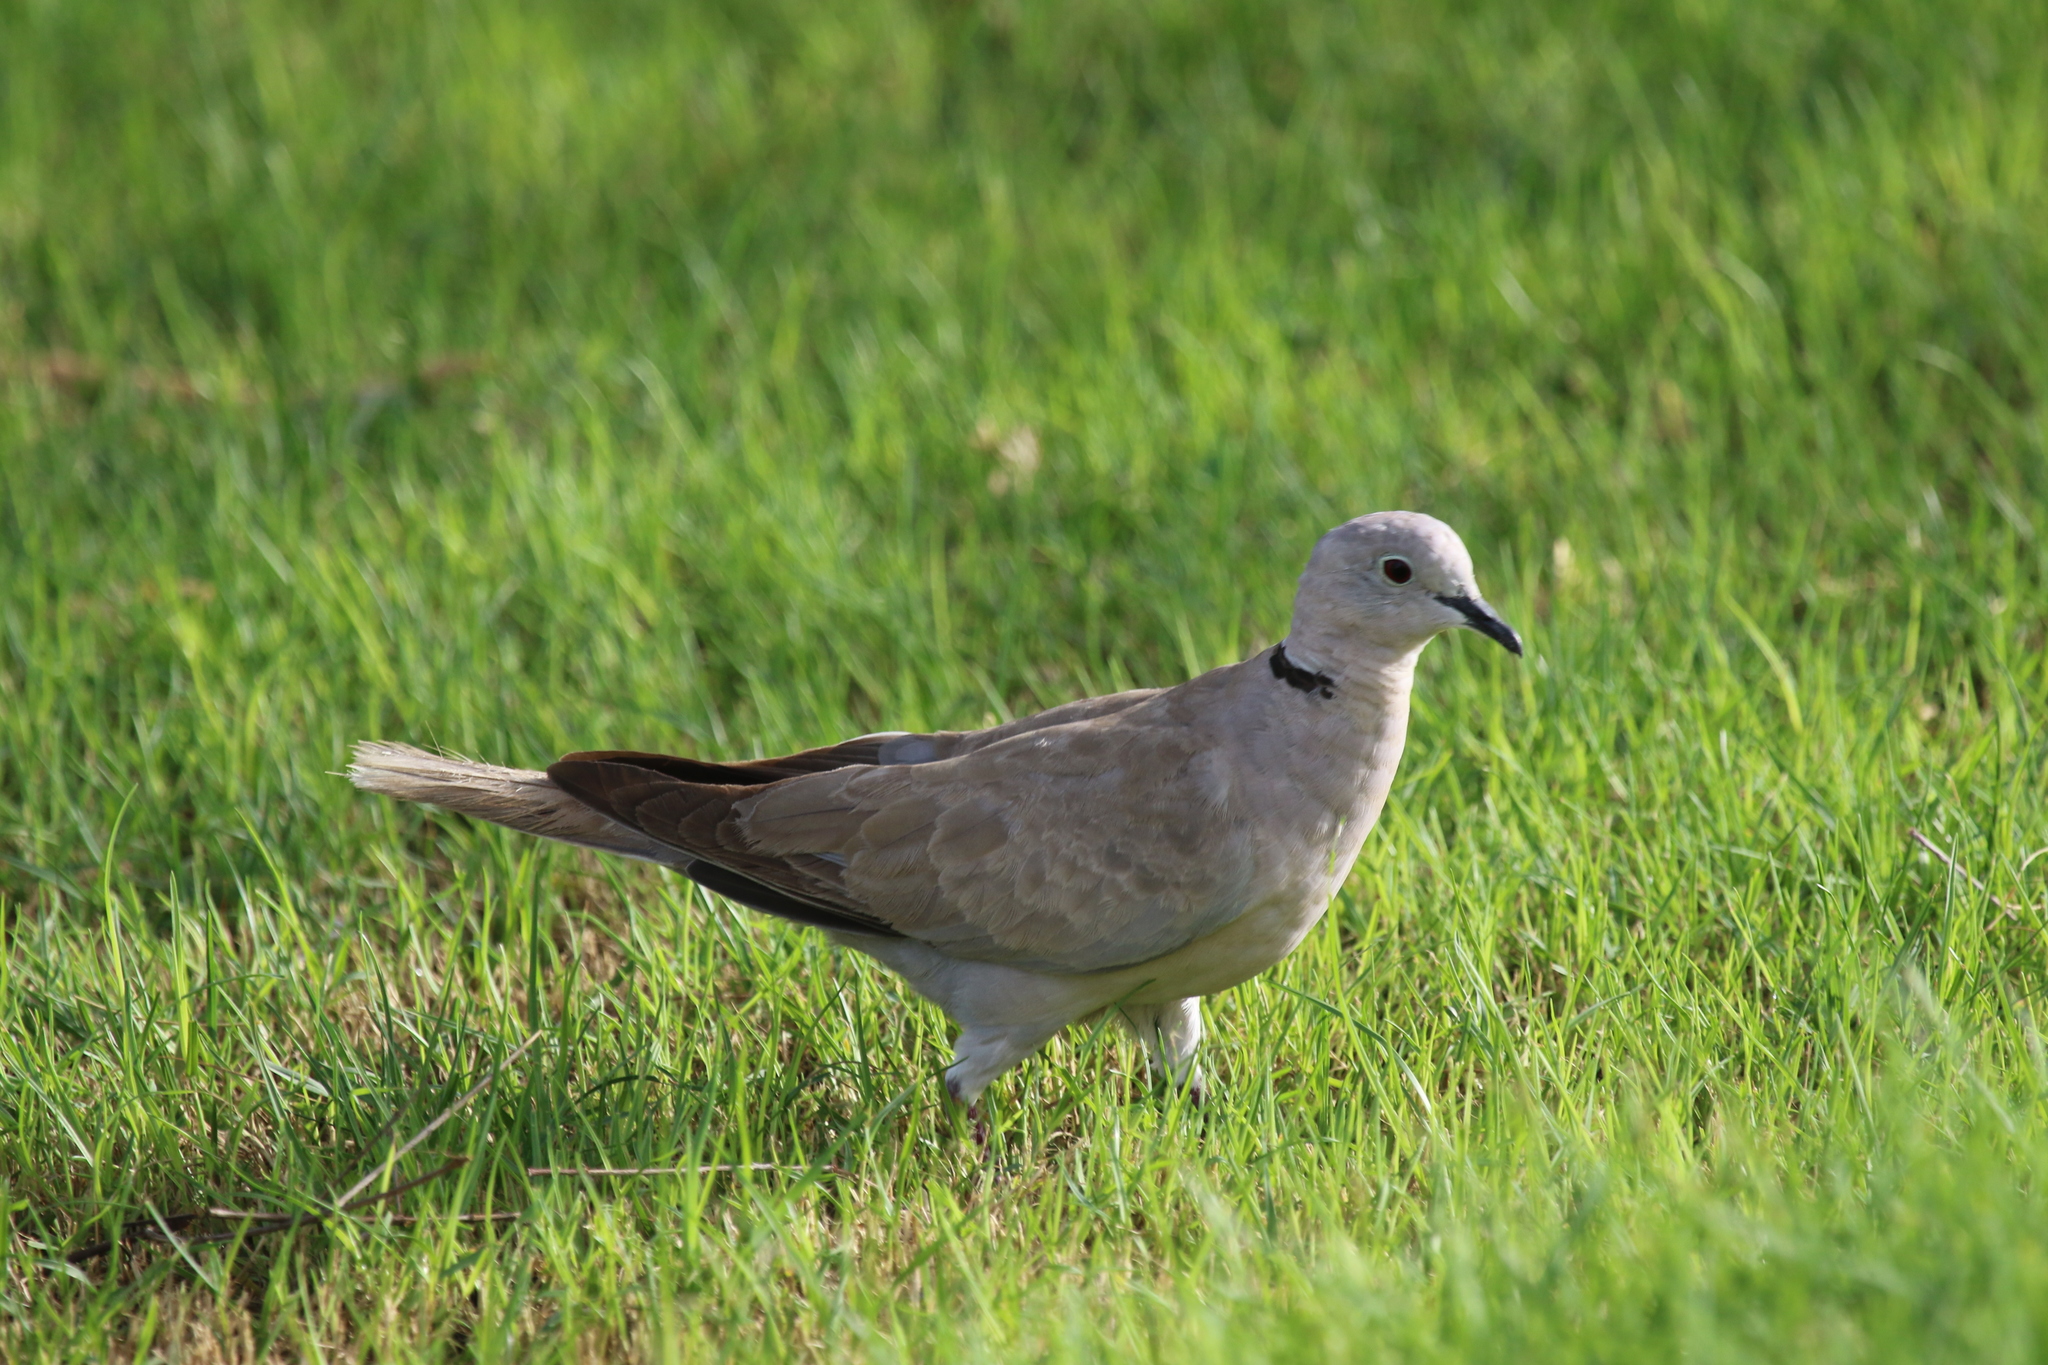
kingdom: Animalia
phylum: Chordata
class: Aves
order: Columbiformes
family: Columbidae
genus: Streptopelia
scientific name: Streptopelia decaocto
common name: Eurasian collared dove
